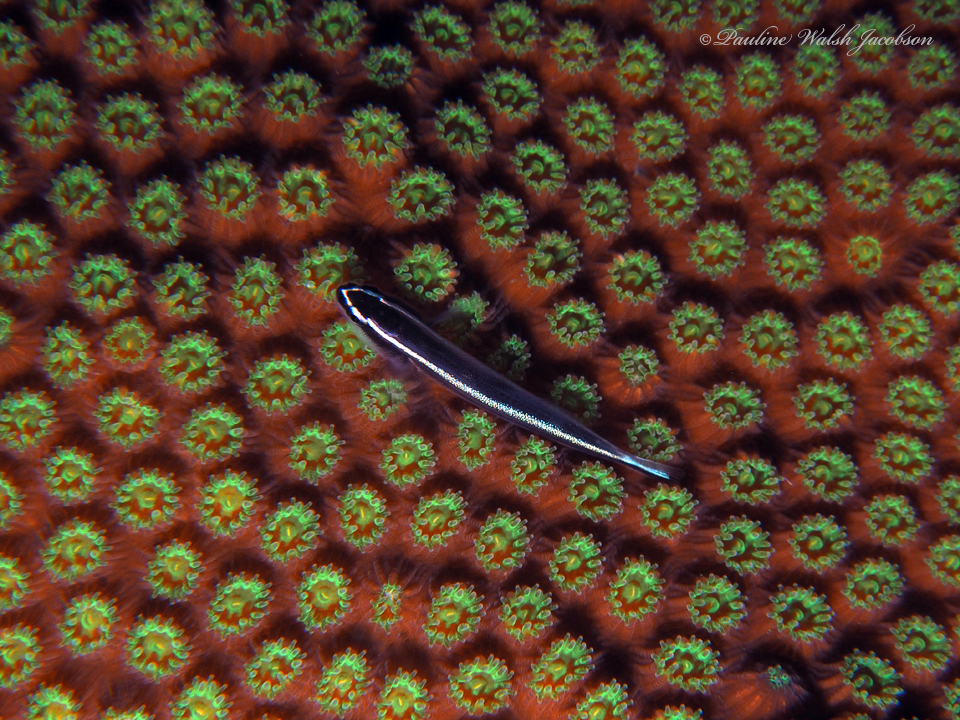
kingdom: Animalia
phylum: Chordata
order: Perciformes
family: Gobiidae
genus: Elacatinus
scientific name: Elacatinus prochilos
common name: Broadstripe goby
